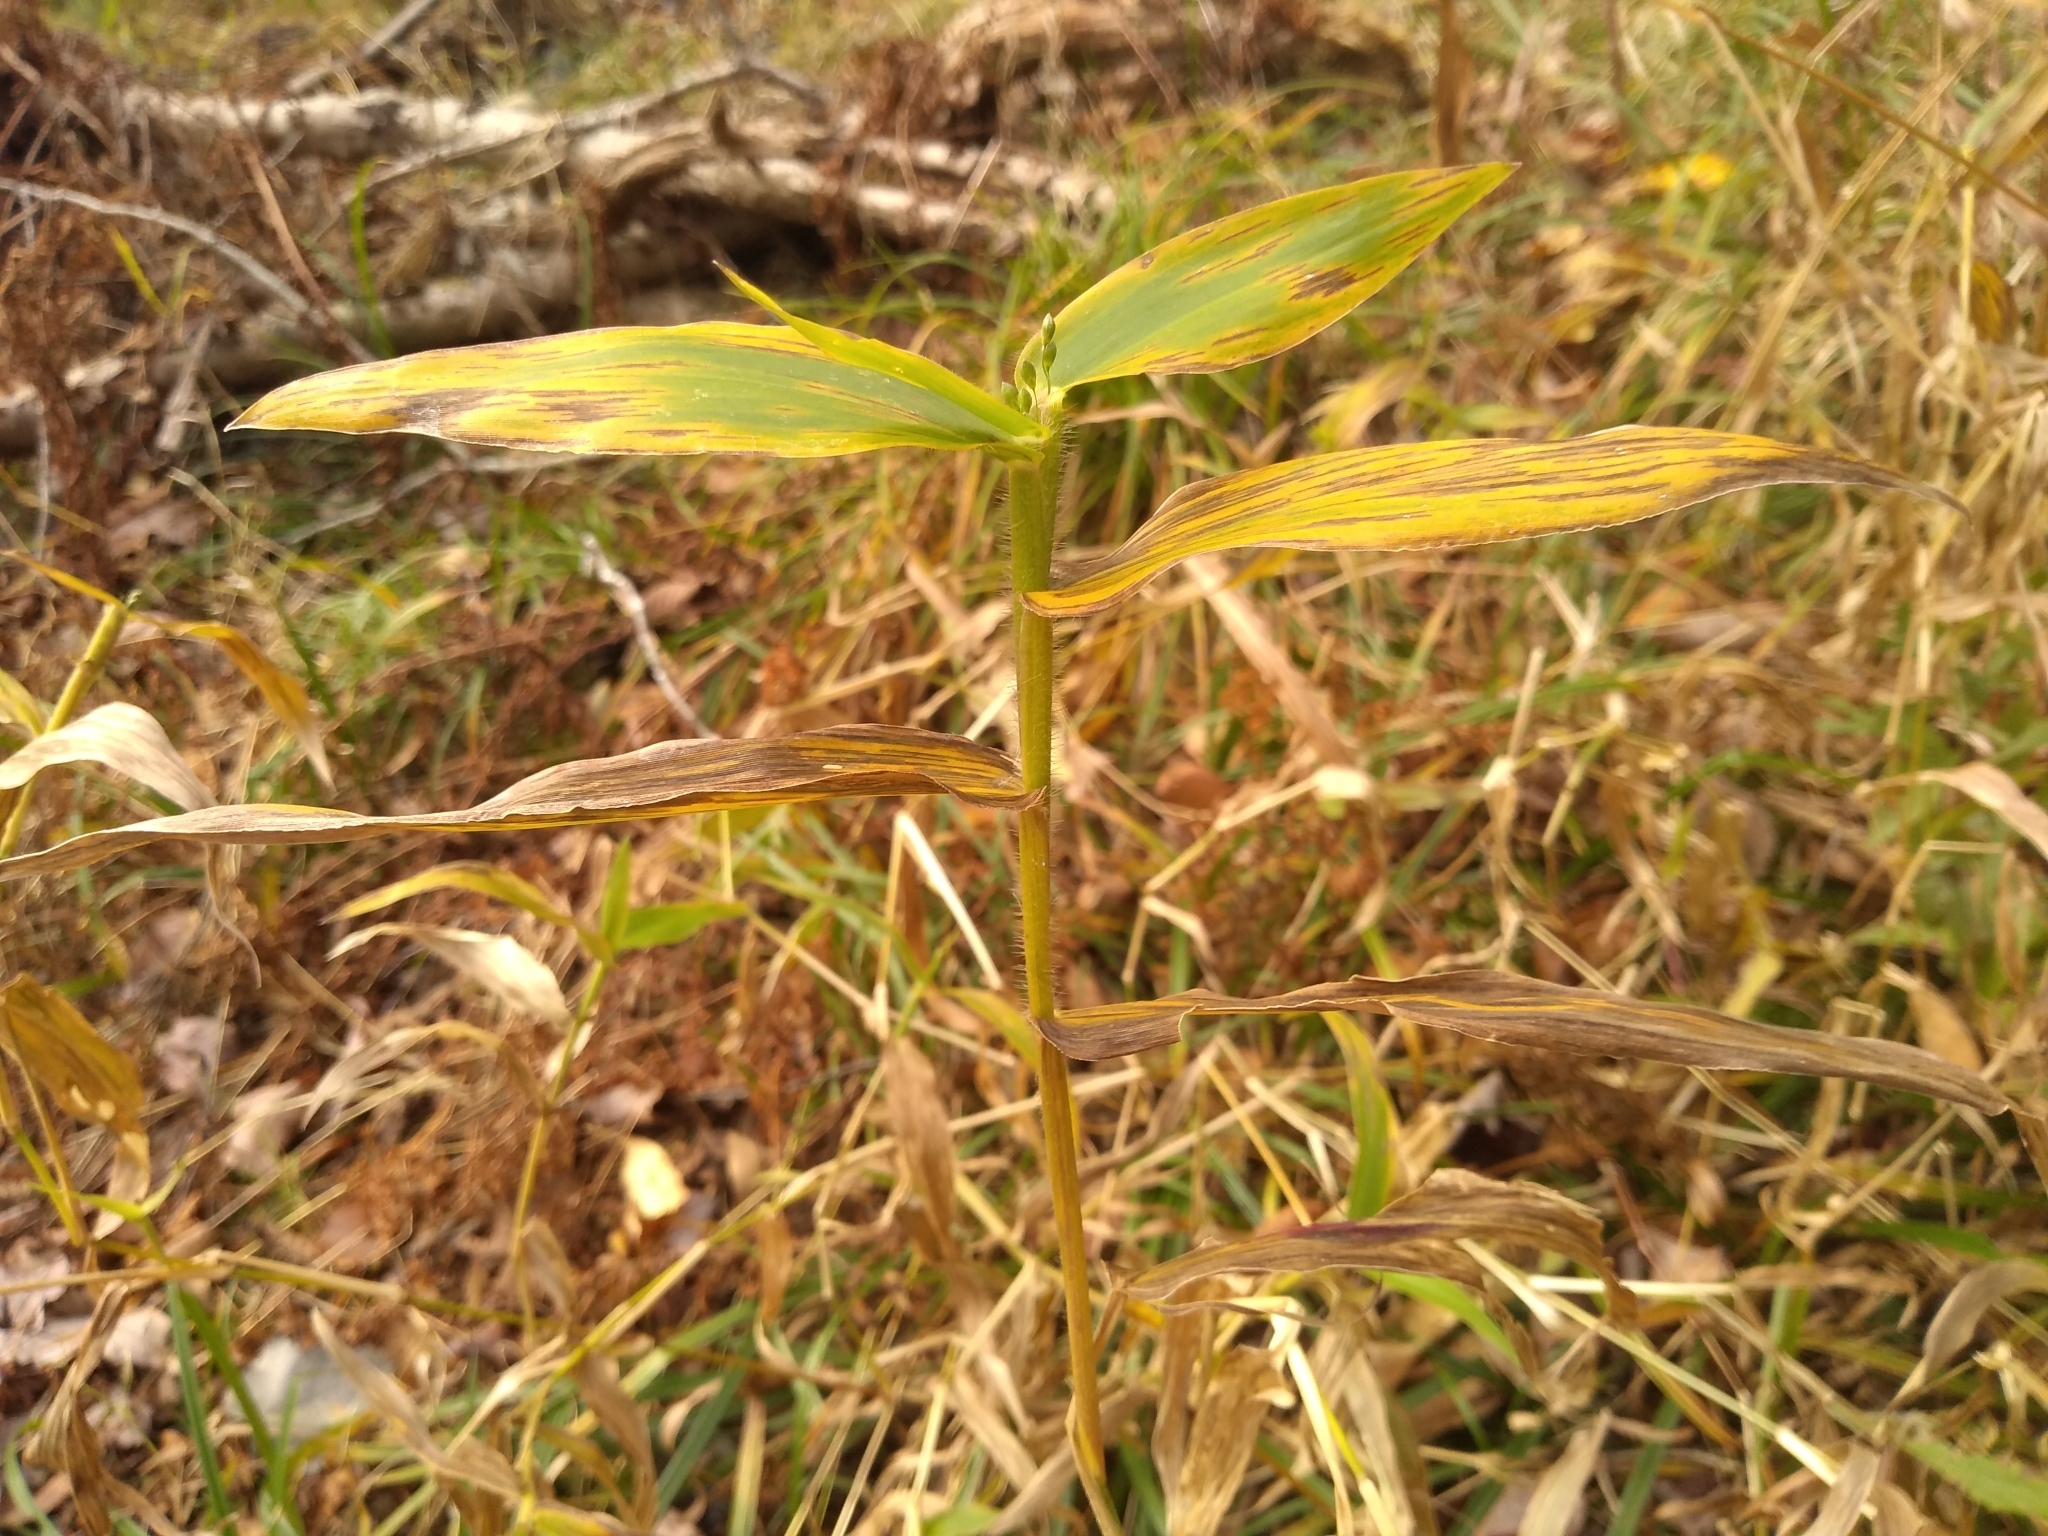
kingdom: Plantae
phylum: Tracheophyta
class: Liliopsida
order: Poales
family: Poaceae
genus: Dichanthelium
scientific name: Dichanthelium clandestinum
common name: Deer-tongue grass
